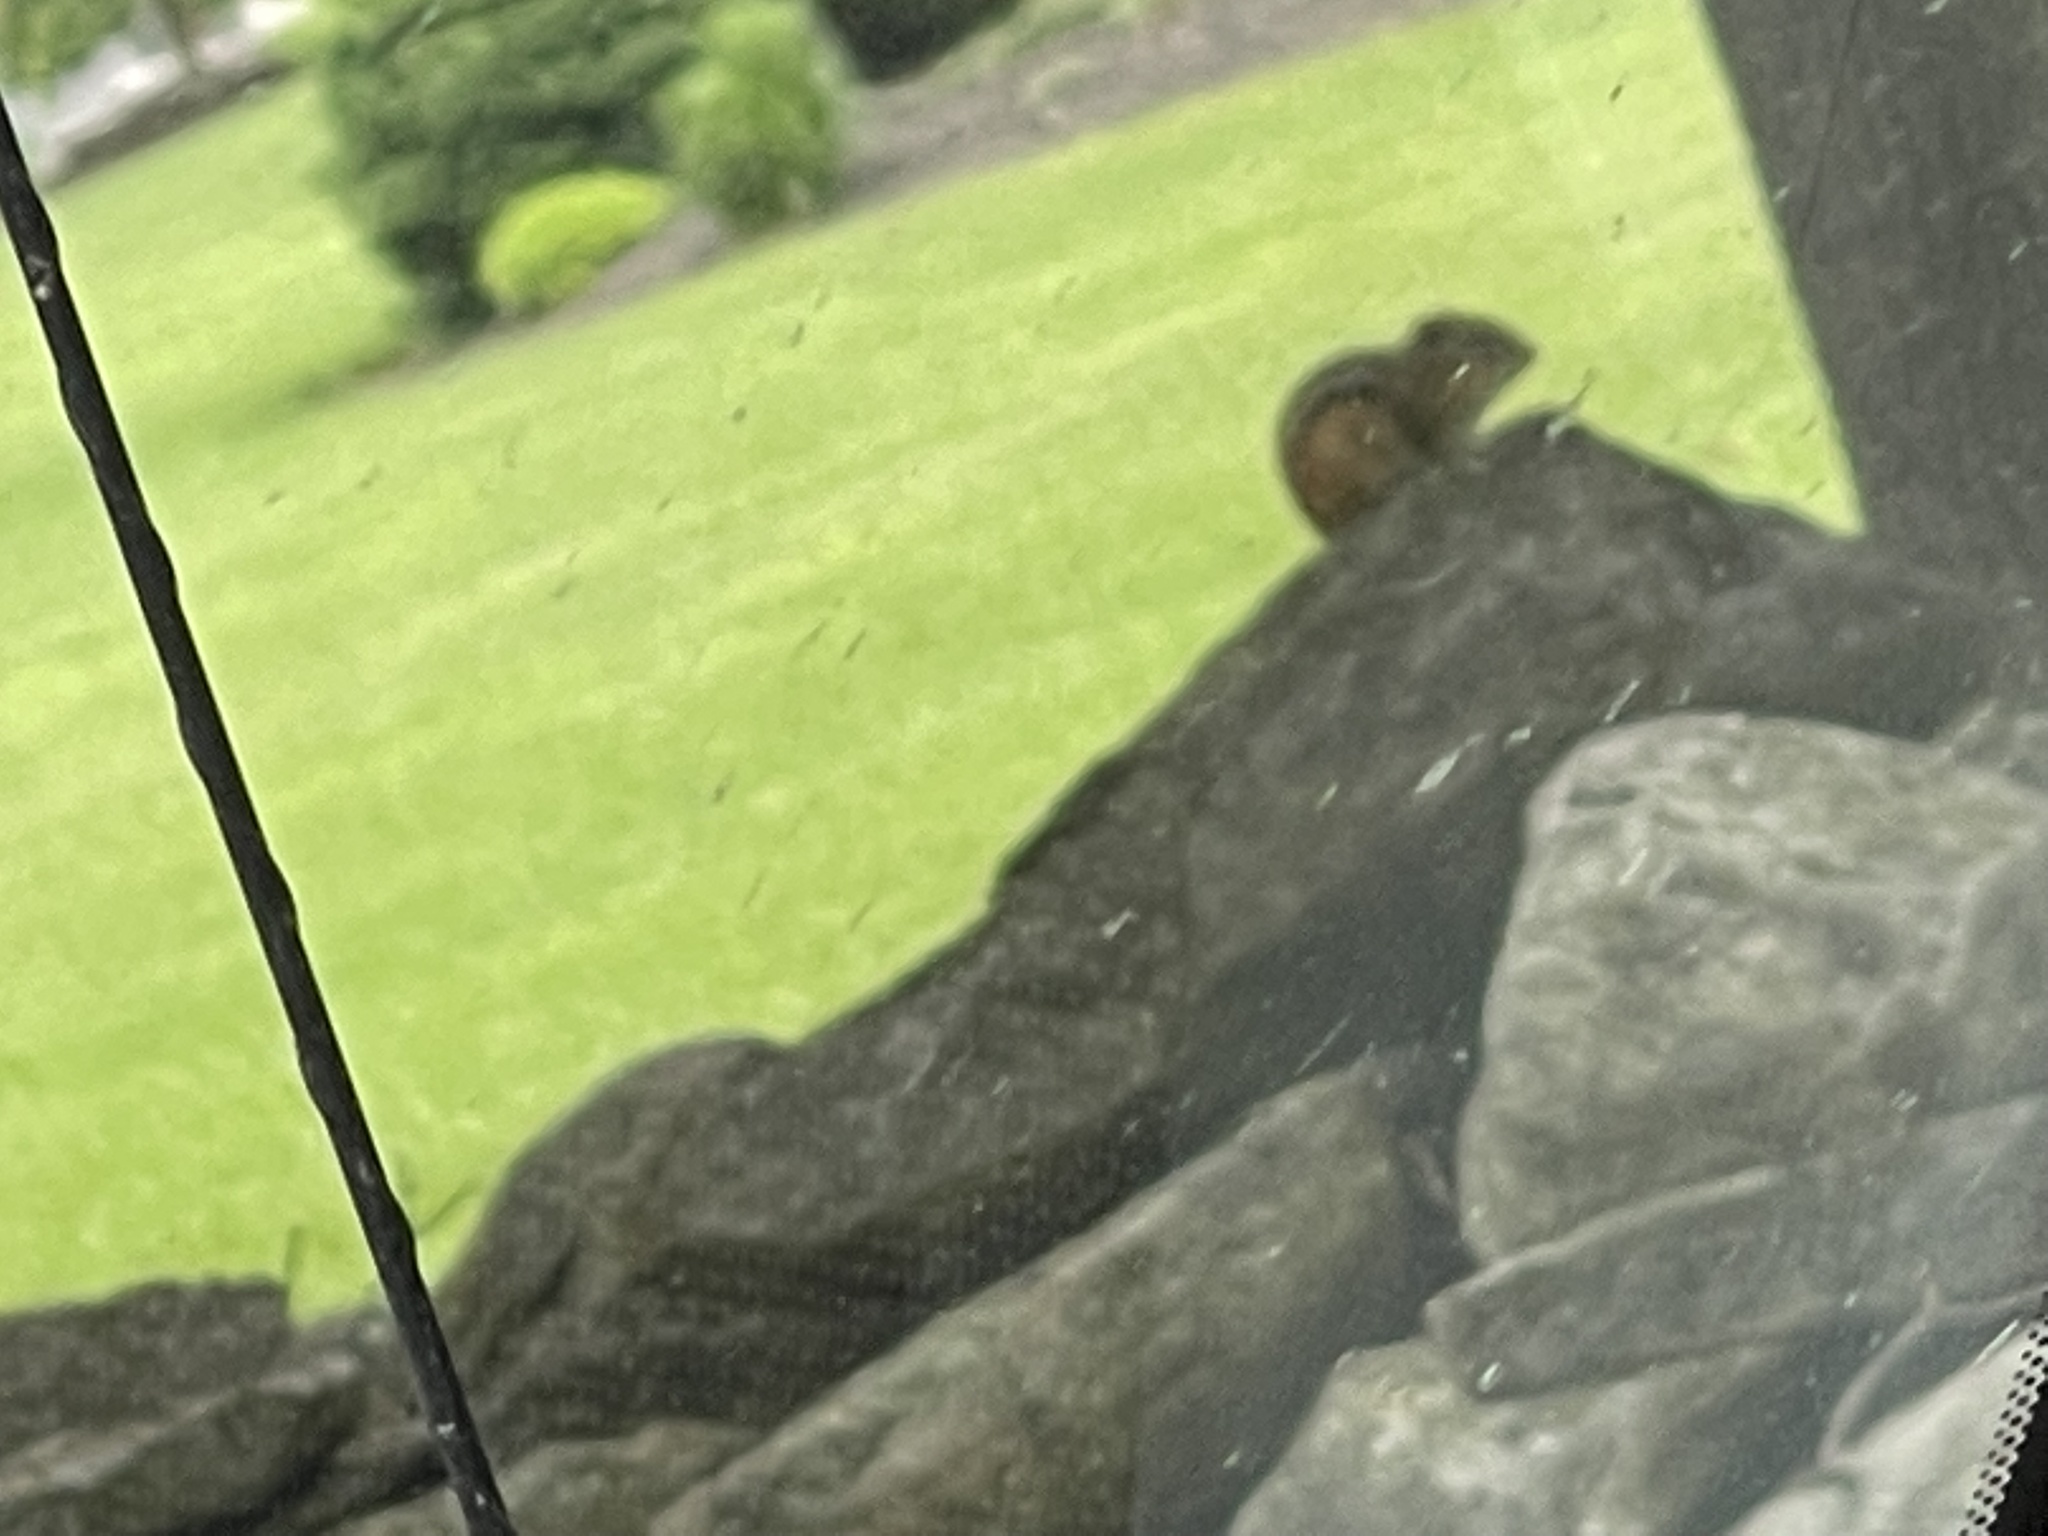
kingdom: Animalia
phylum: Chordata
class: Mammalia
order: Rodentia
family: Sciuridae
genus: Tamias
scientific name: Tamias striatus
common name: Eastern chipmunk
